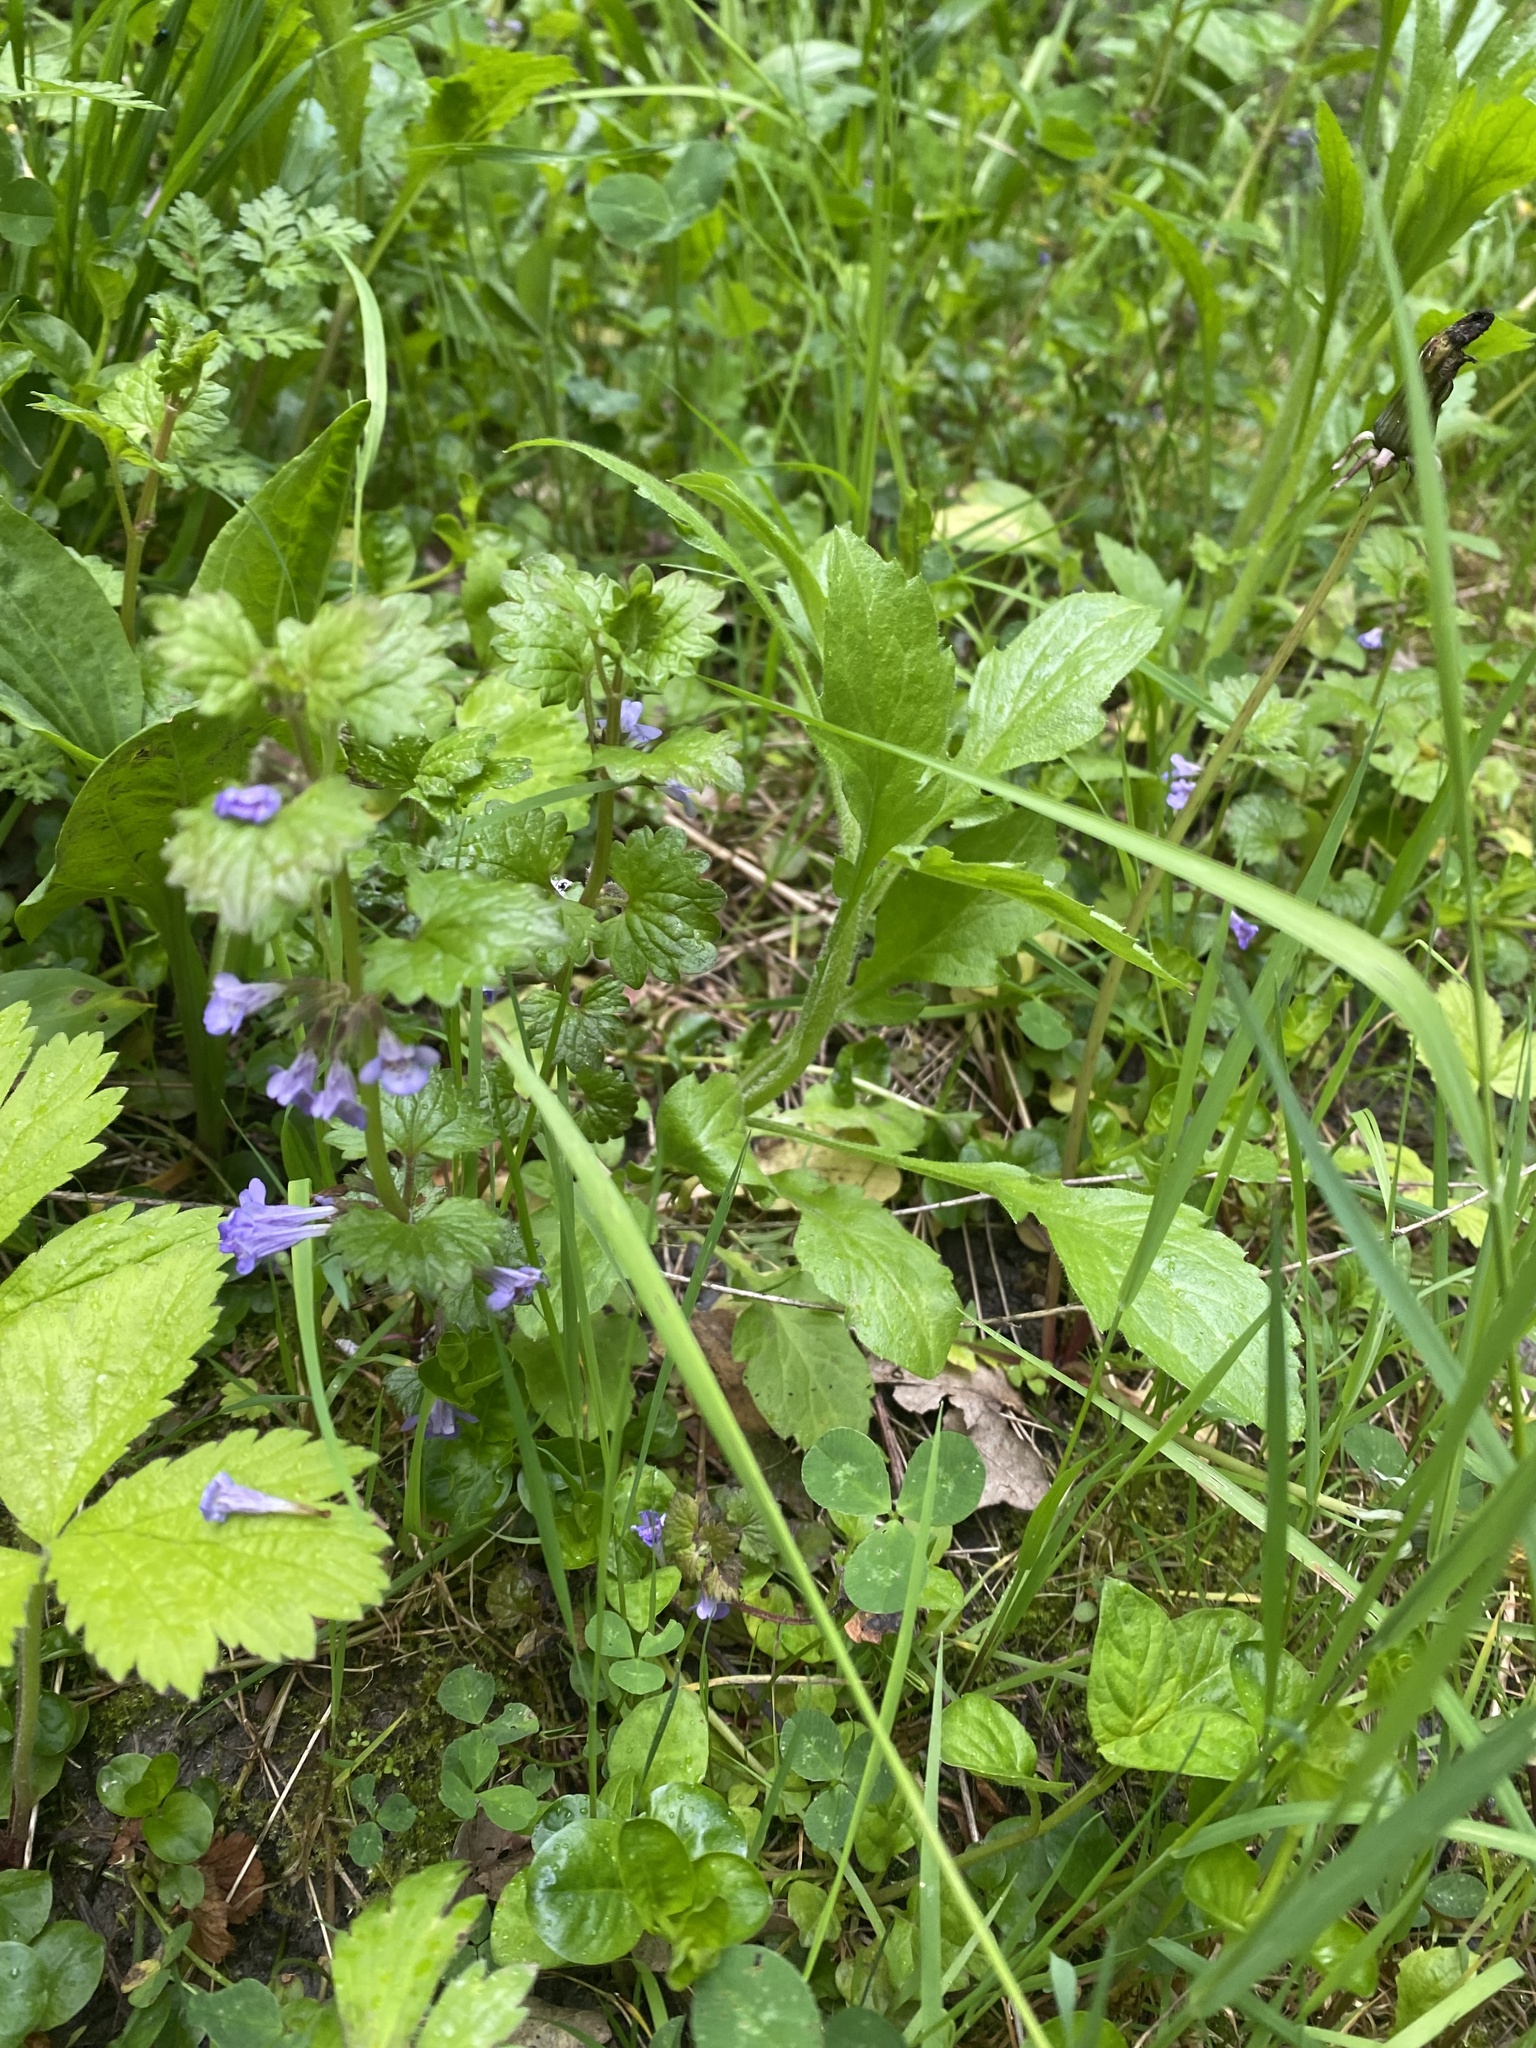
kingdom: Plantae
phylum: Tracheophyta
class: Magnoliopsida
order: Lamiales
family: Lamiaceae
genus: Glechoma
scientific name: Glechoma hederacea
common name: Ground ivy
